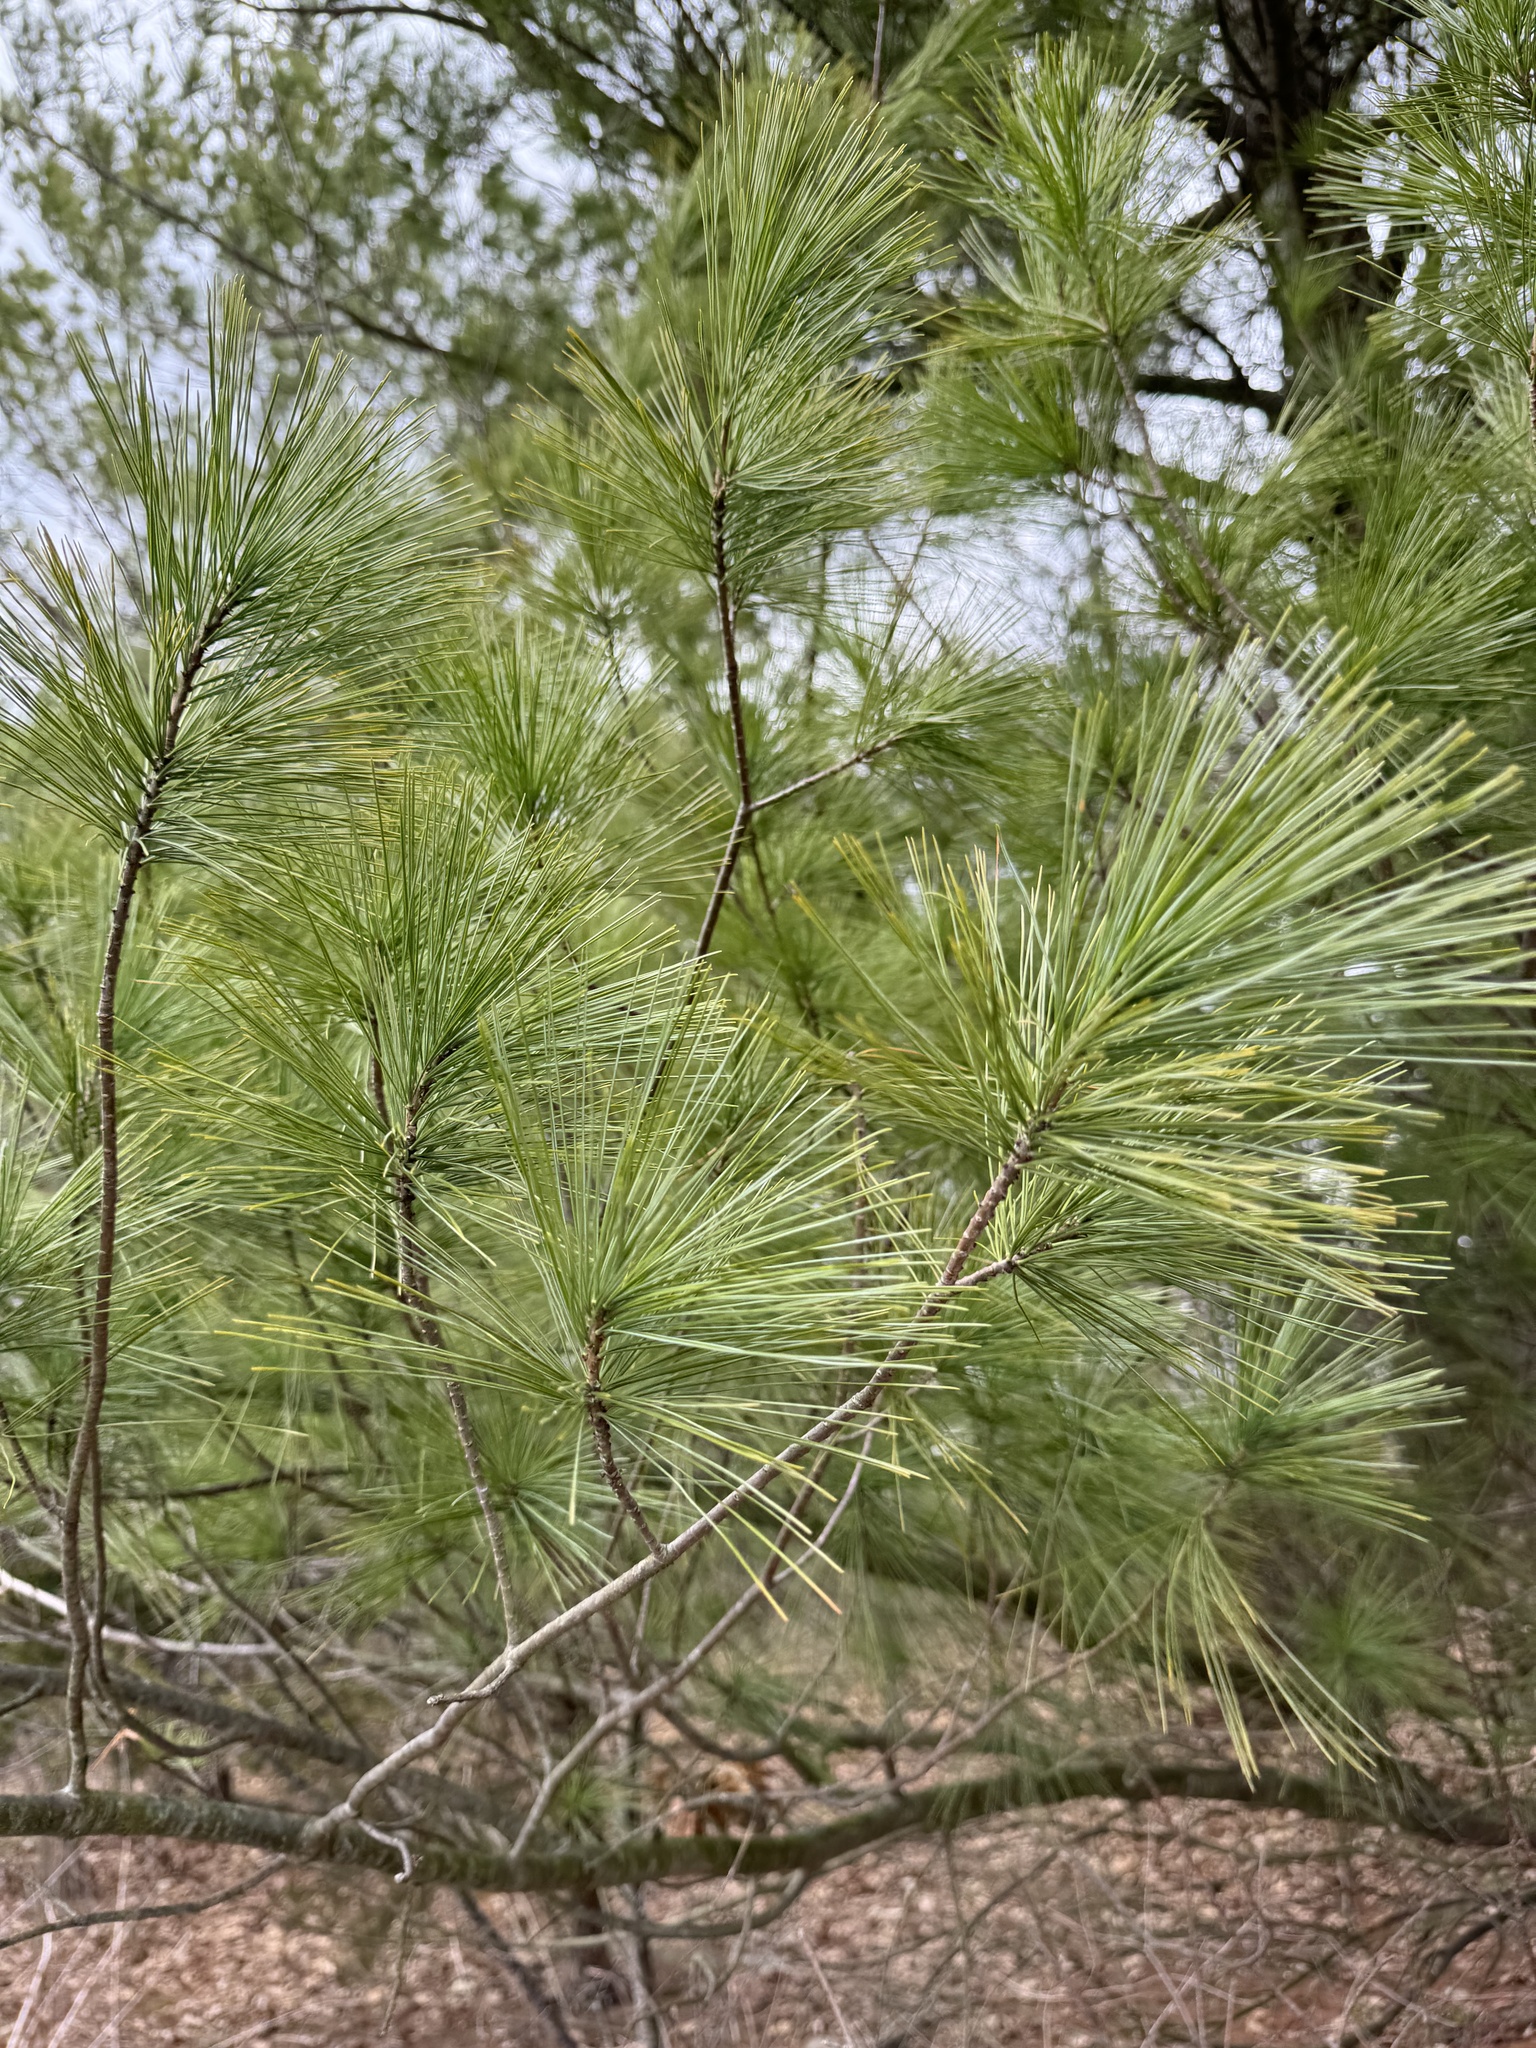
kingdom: Plantae
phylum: Tracheophyta
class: Pinopsida
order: Pinales
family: Pinaceae
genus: Pinus
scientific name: Pinus strobus
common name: Weymouth pine
